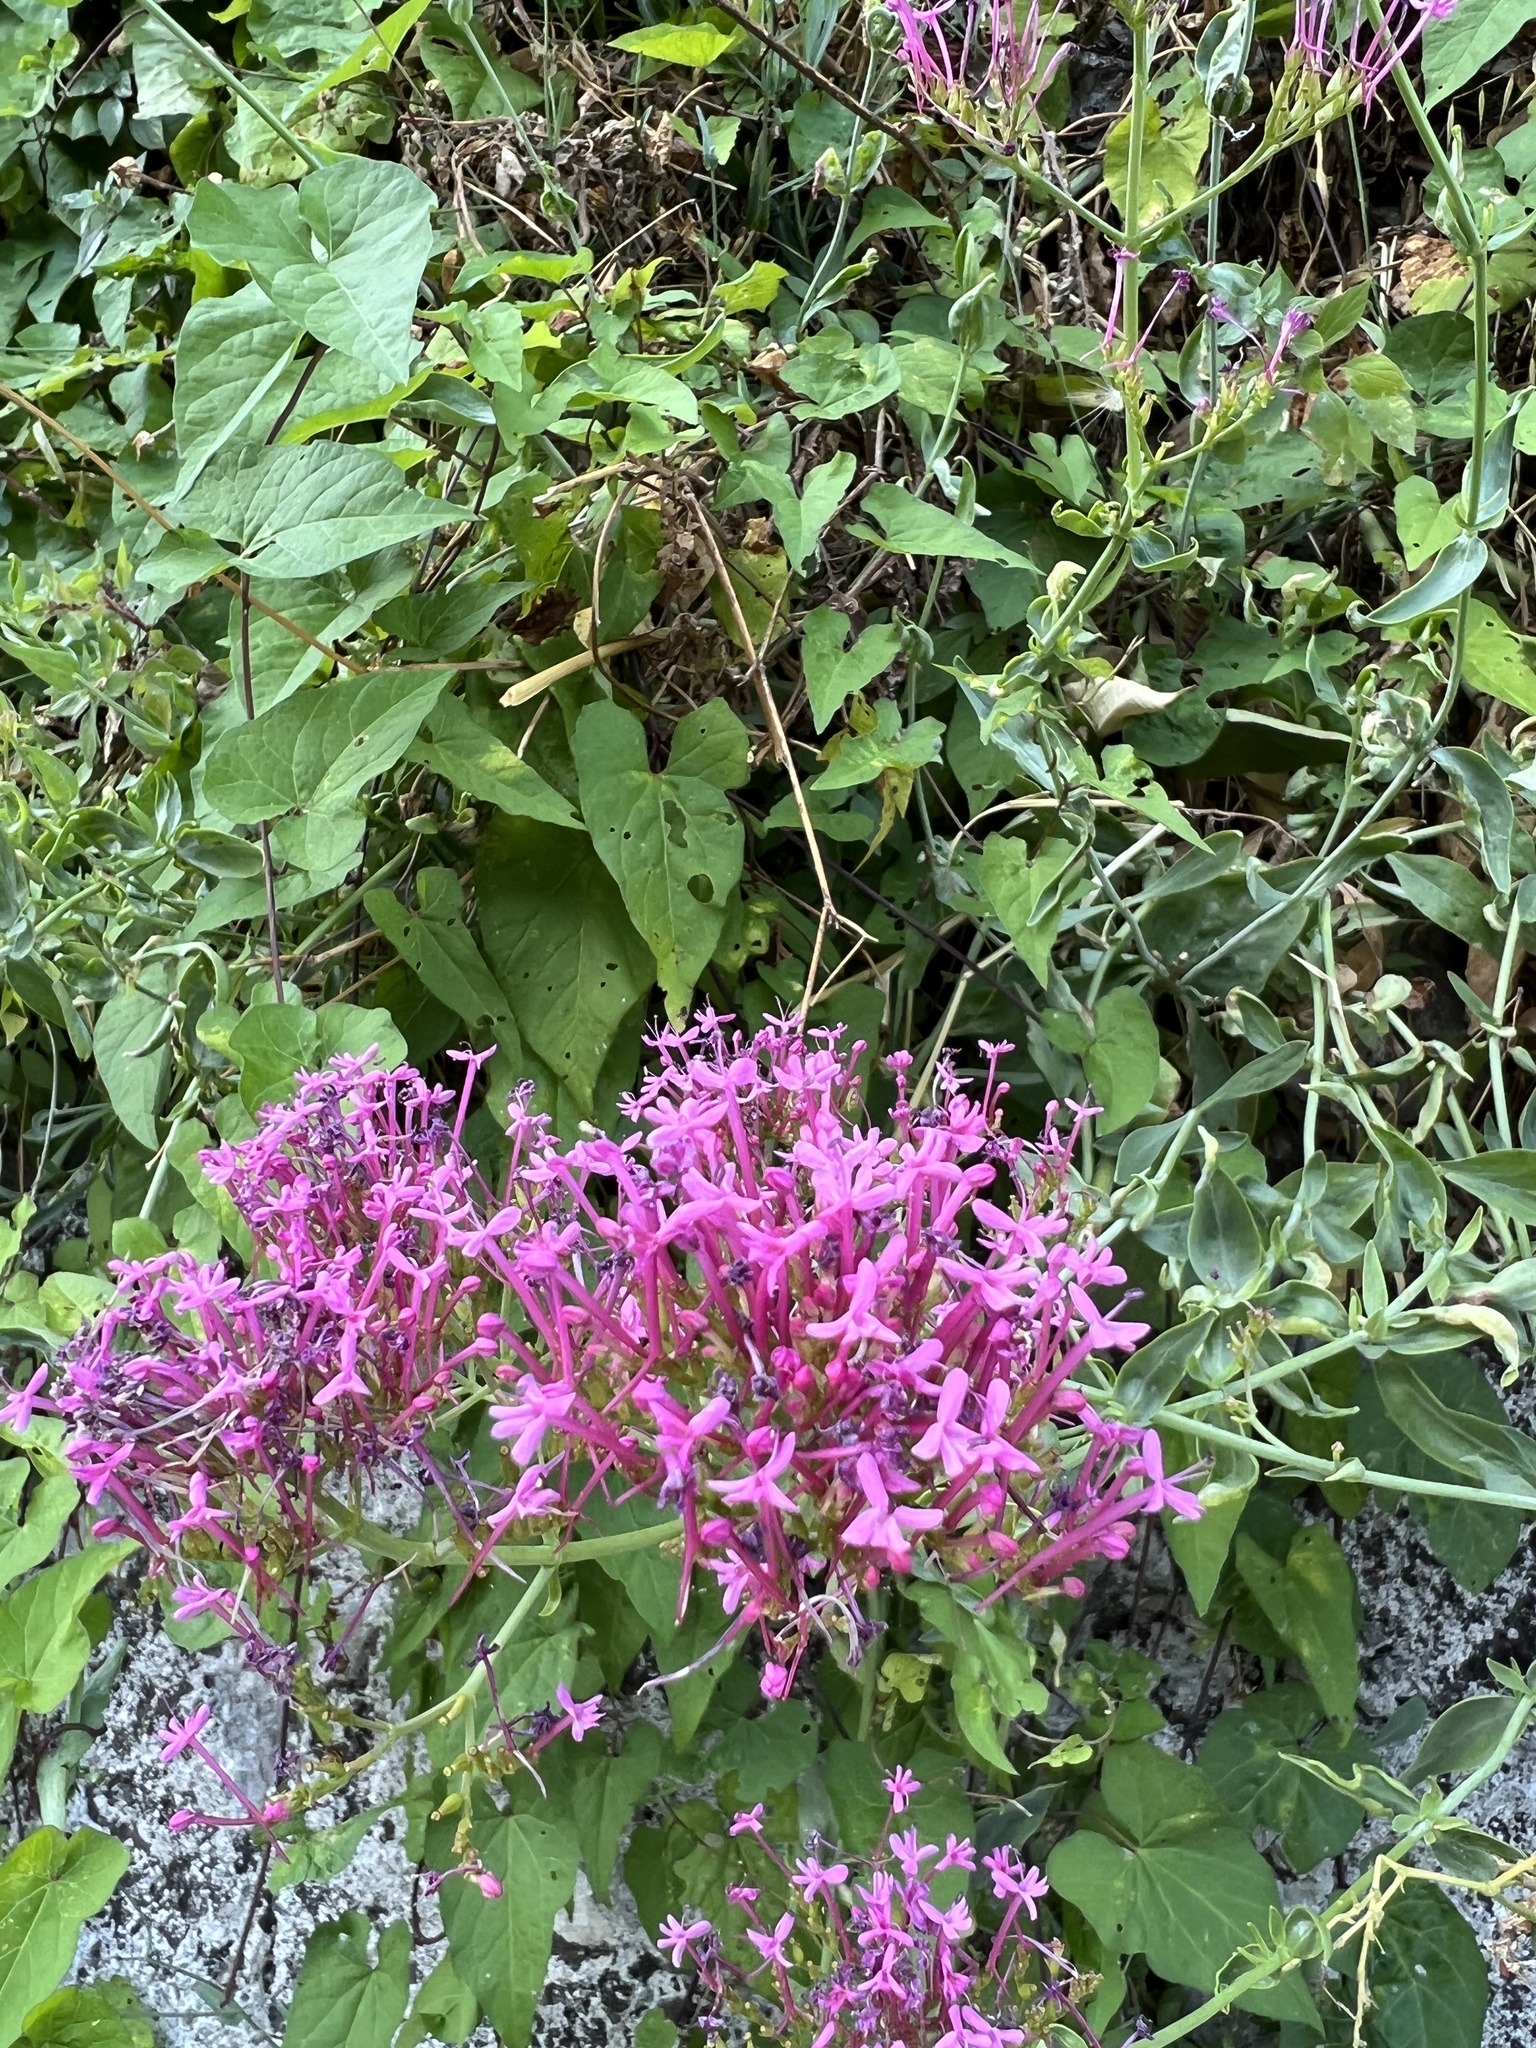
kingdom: Plantae
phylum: Tracheophyta
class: Magnoliopsida
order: Dipsacales
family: Caprifoliaceae
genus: Centranthus
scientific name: Centranthus ruber
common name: Red valerian
